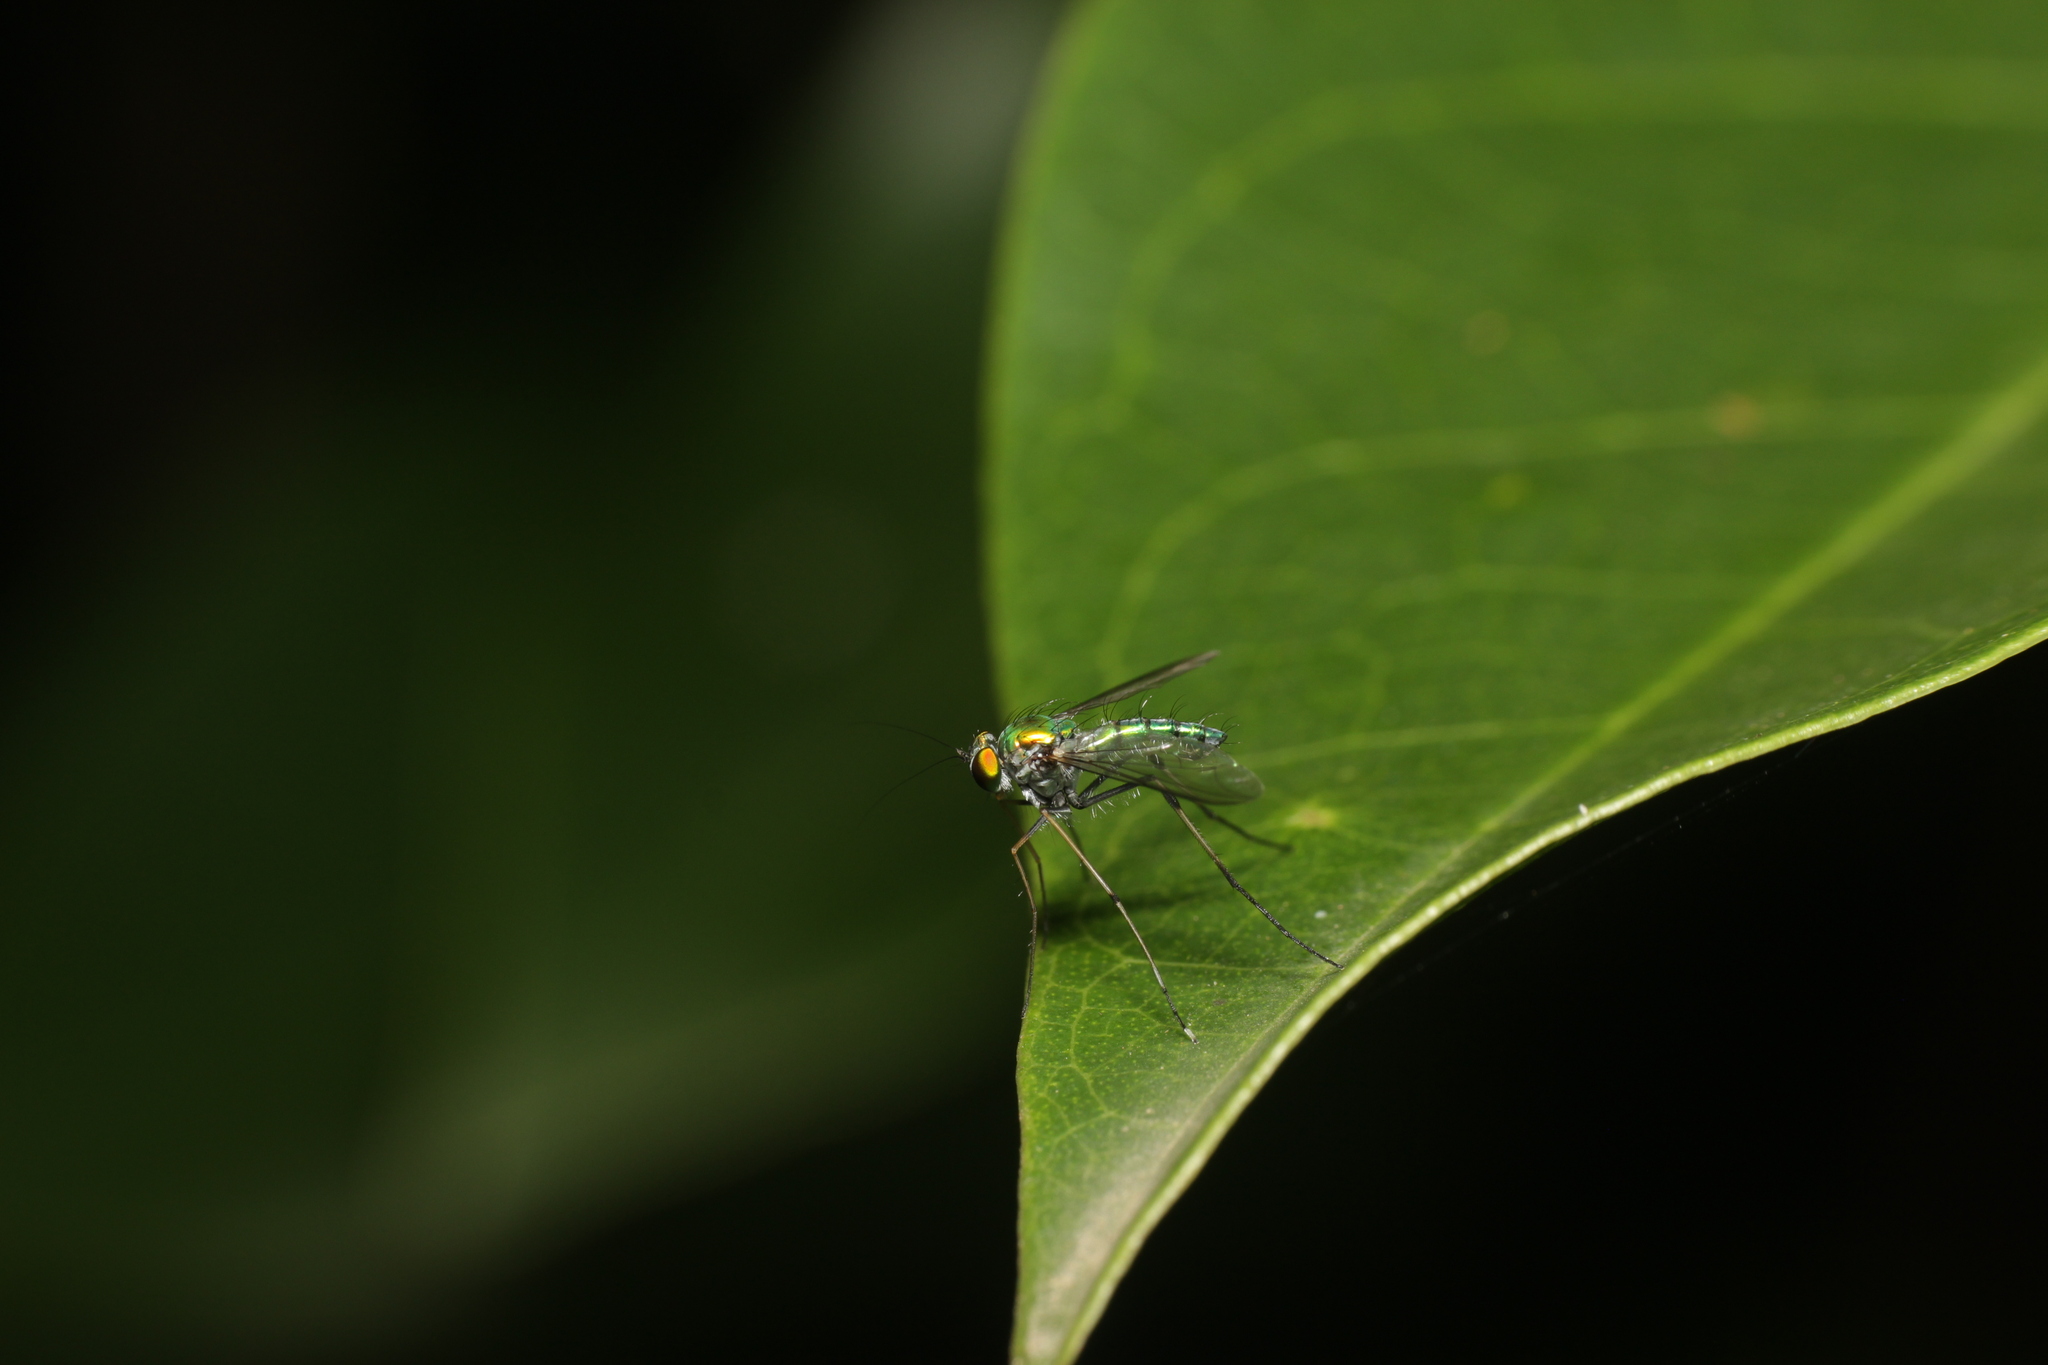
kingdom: Animalia
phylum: Arthropoda
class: Insecta
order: Diptera
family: Dolichopodidae
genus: Chrysosoma
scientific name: Chrysosoma leucopogon
